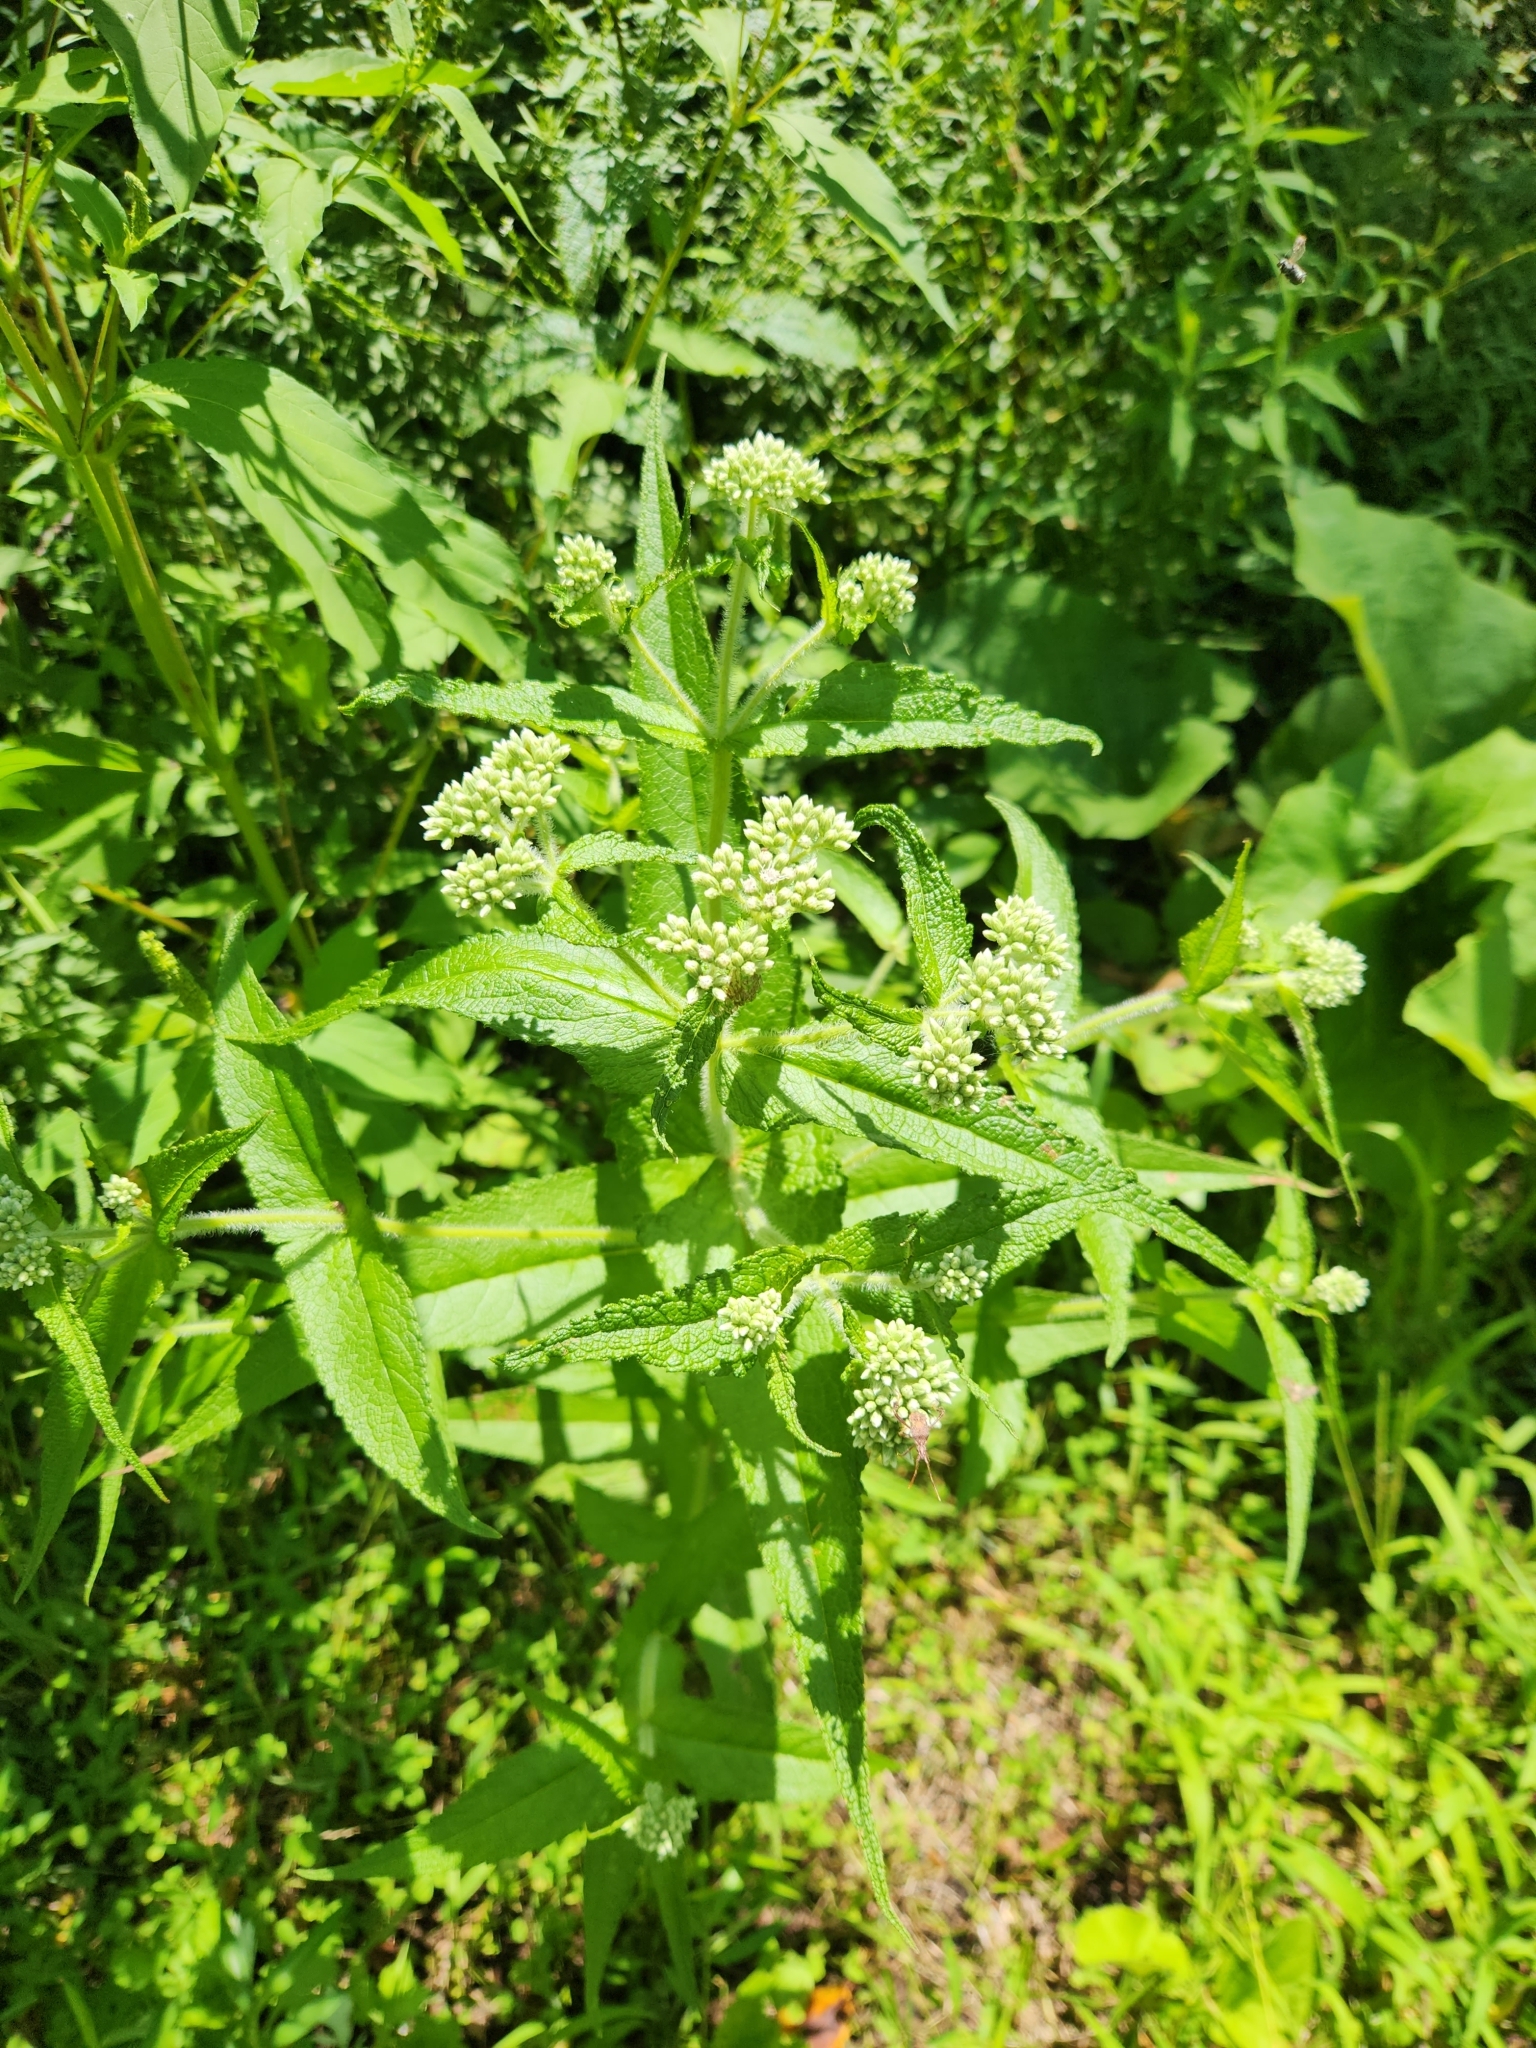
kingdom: Plantae
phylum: Tracheophyta
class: Magnoliopsida
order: Asterales
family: Asteraceae
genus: Eupatorium
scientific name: Eupatorium perfoliatum
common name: Boneset
